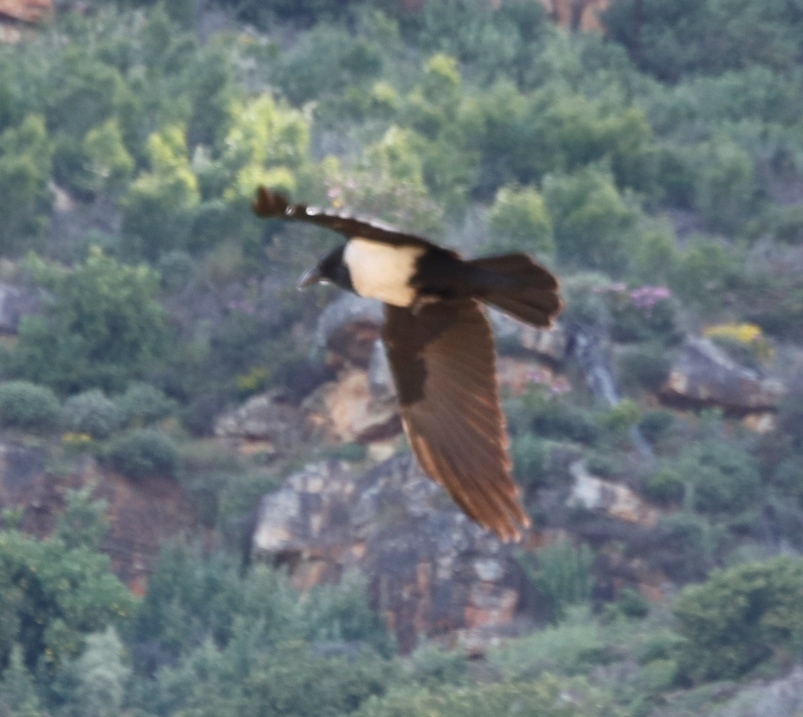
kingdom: Animalia
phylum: Chordata
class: Aves
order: Passeriformes
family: Corvidae
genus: Corvus
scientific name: Corvus albus
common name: Pied crow
